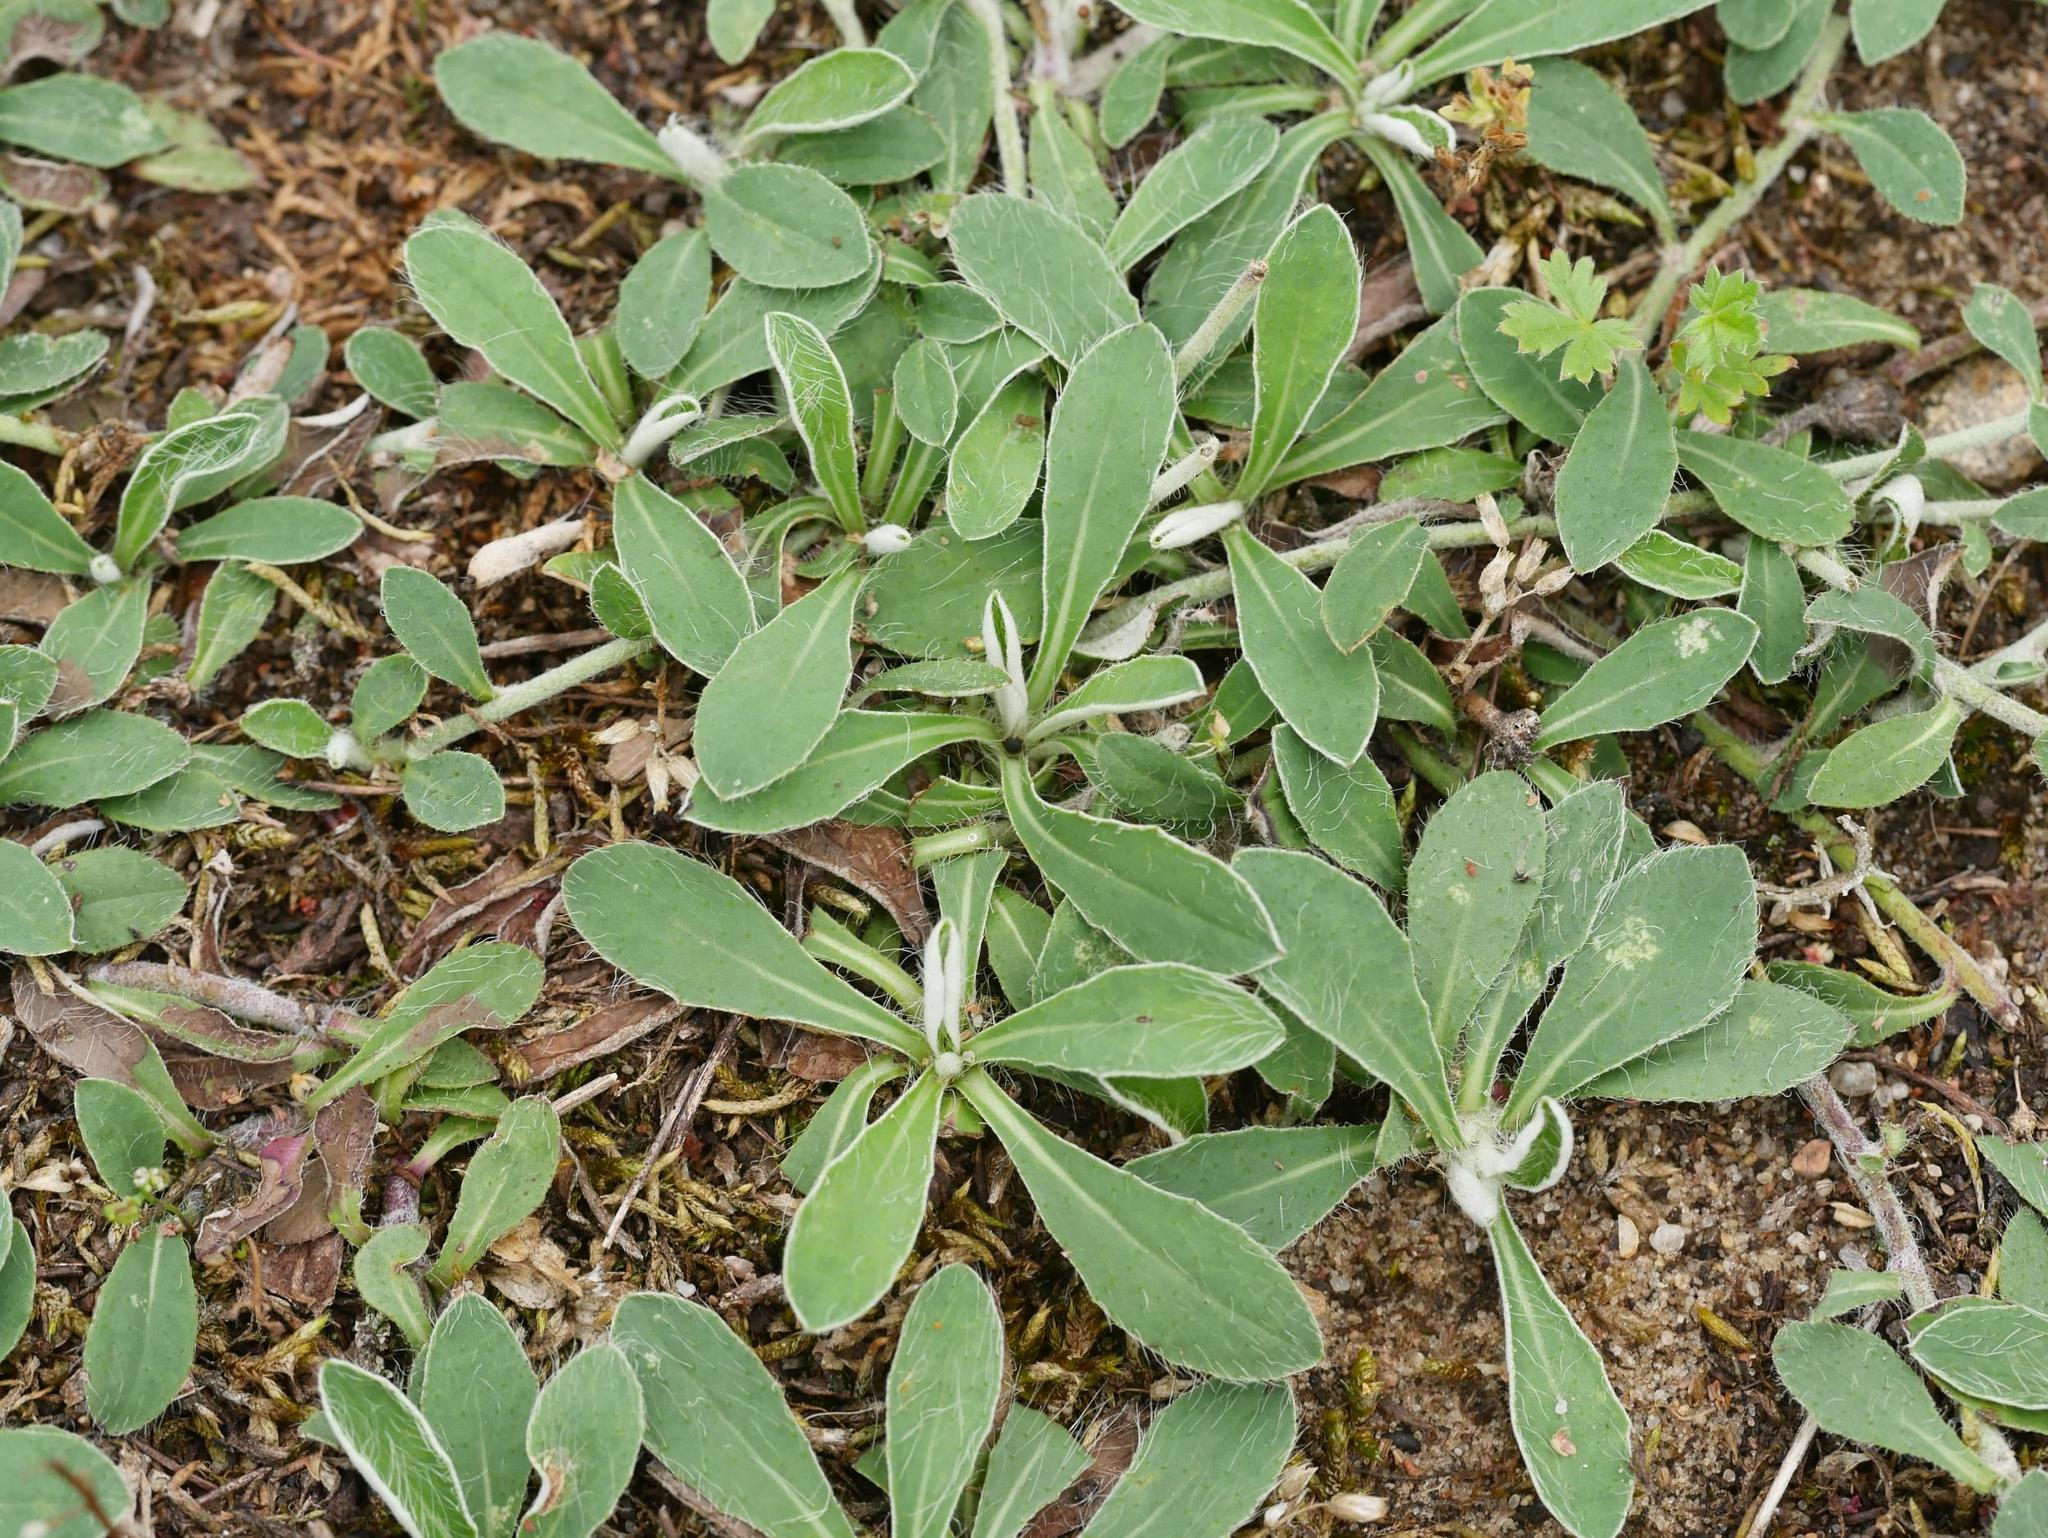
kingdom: Plantae
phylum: Tracheophyta
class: Magnoliopsida
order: Asterales
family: Asteraceae
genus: Pilosella
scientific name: Pilosella officinarum
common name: Mouse-ear hawkweed
